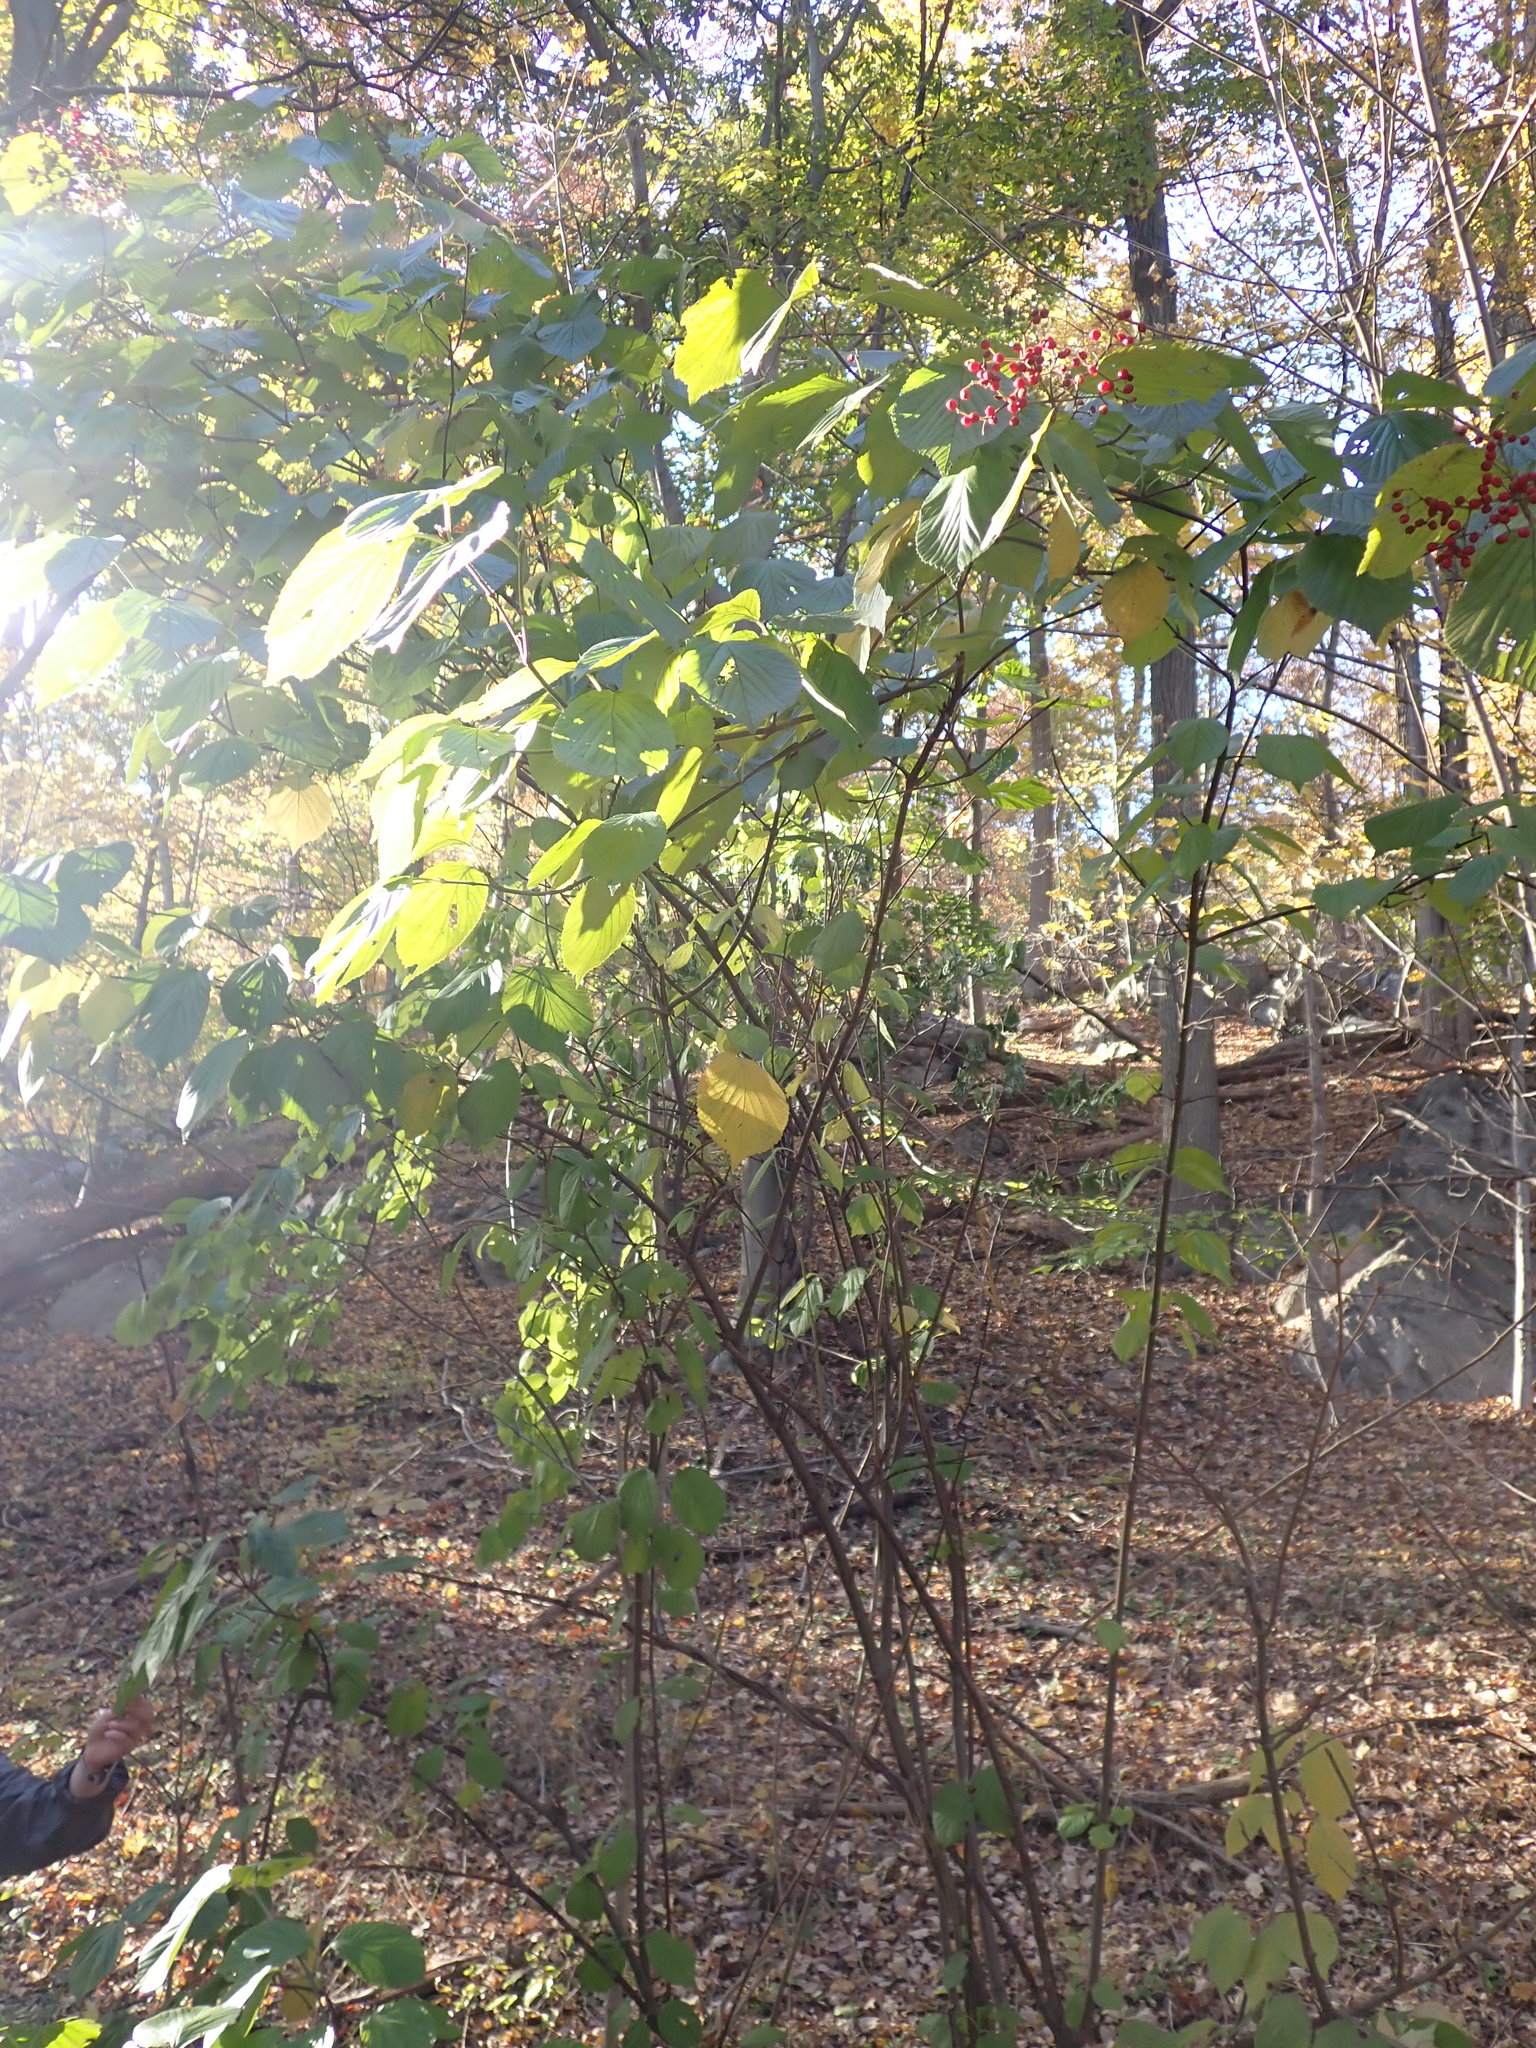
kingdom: Plantae
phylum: Tracheophyta
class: Magnoliopsida
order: Dipsacales
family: Viburnaceae
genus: Viburnum
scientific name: Viburnum dilatatum
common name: Linden arrowwood
